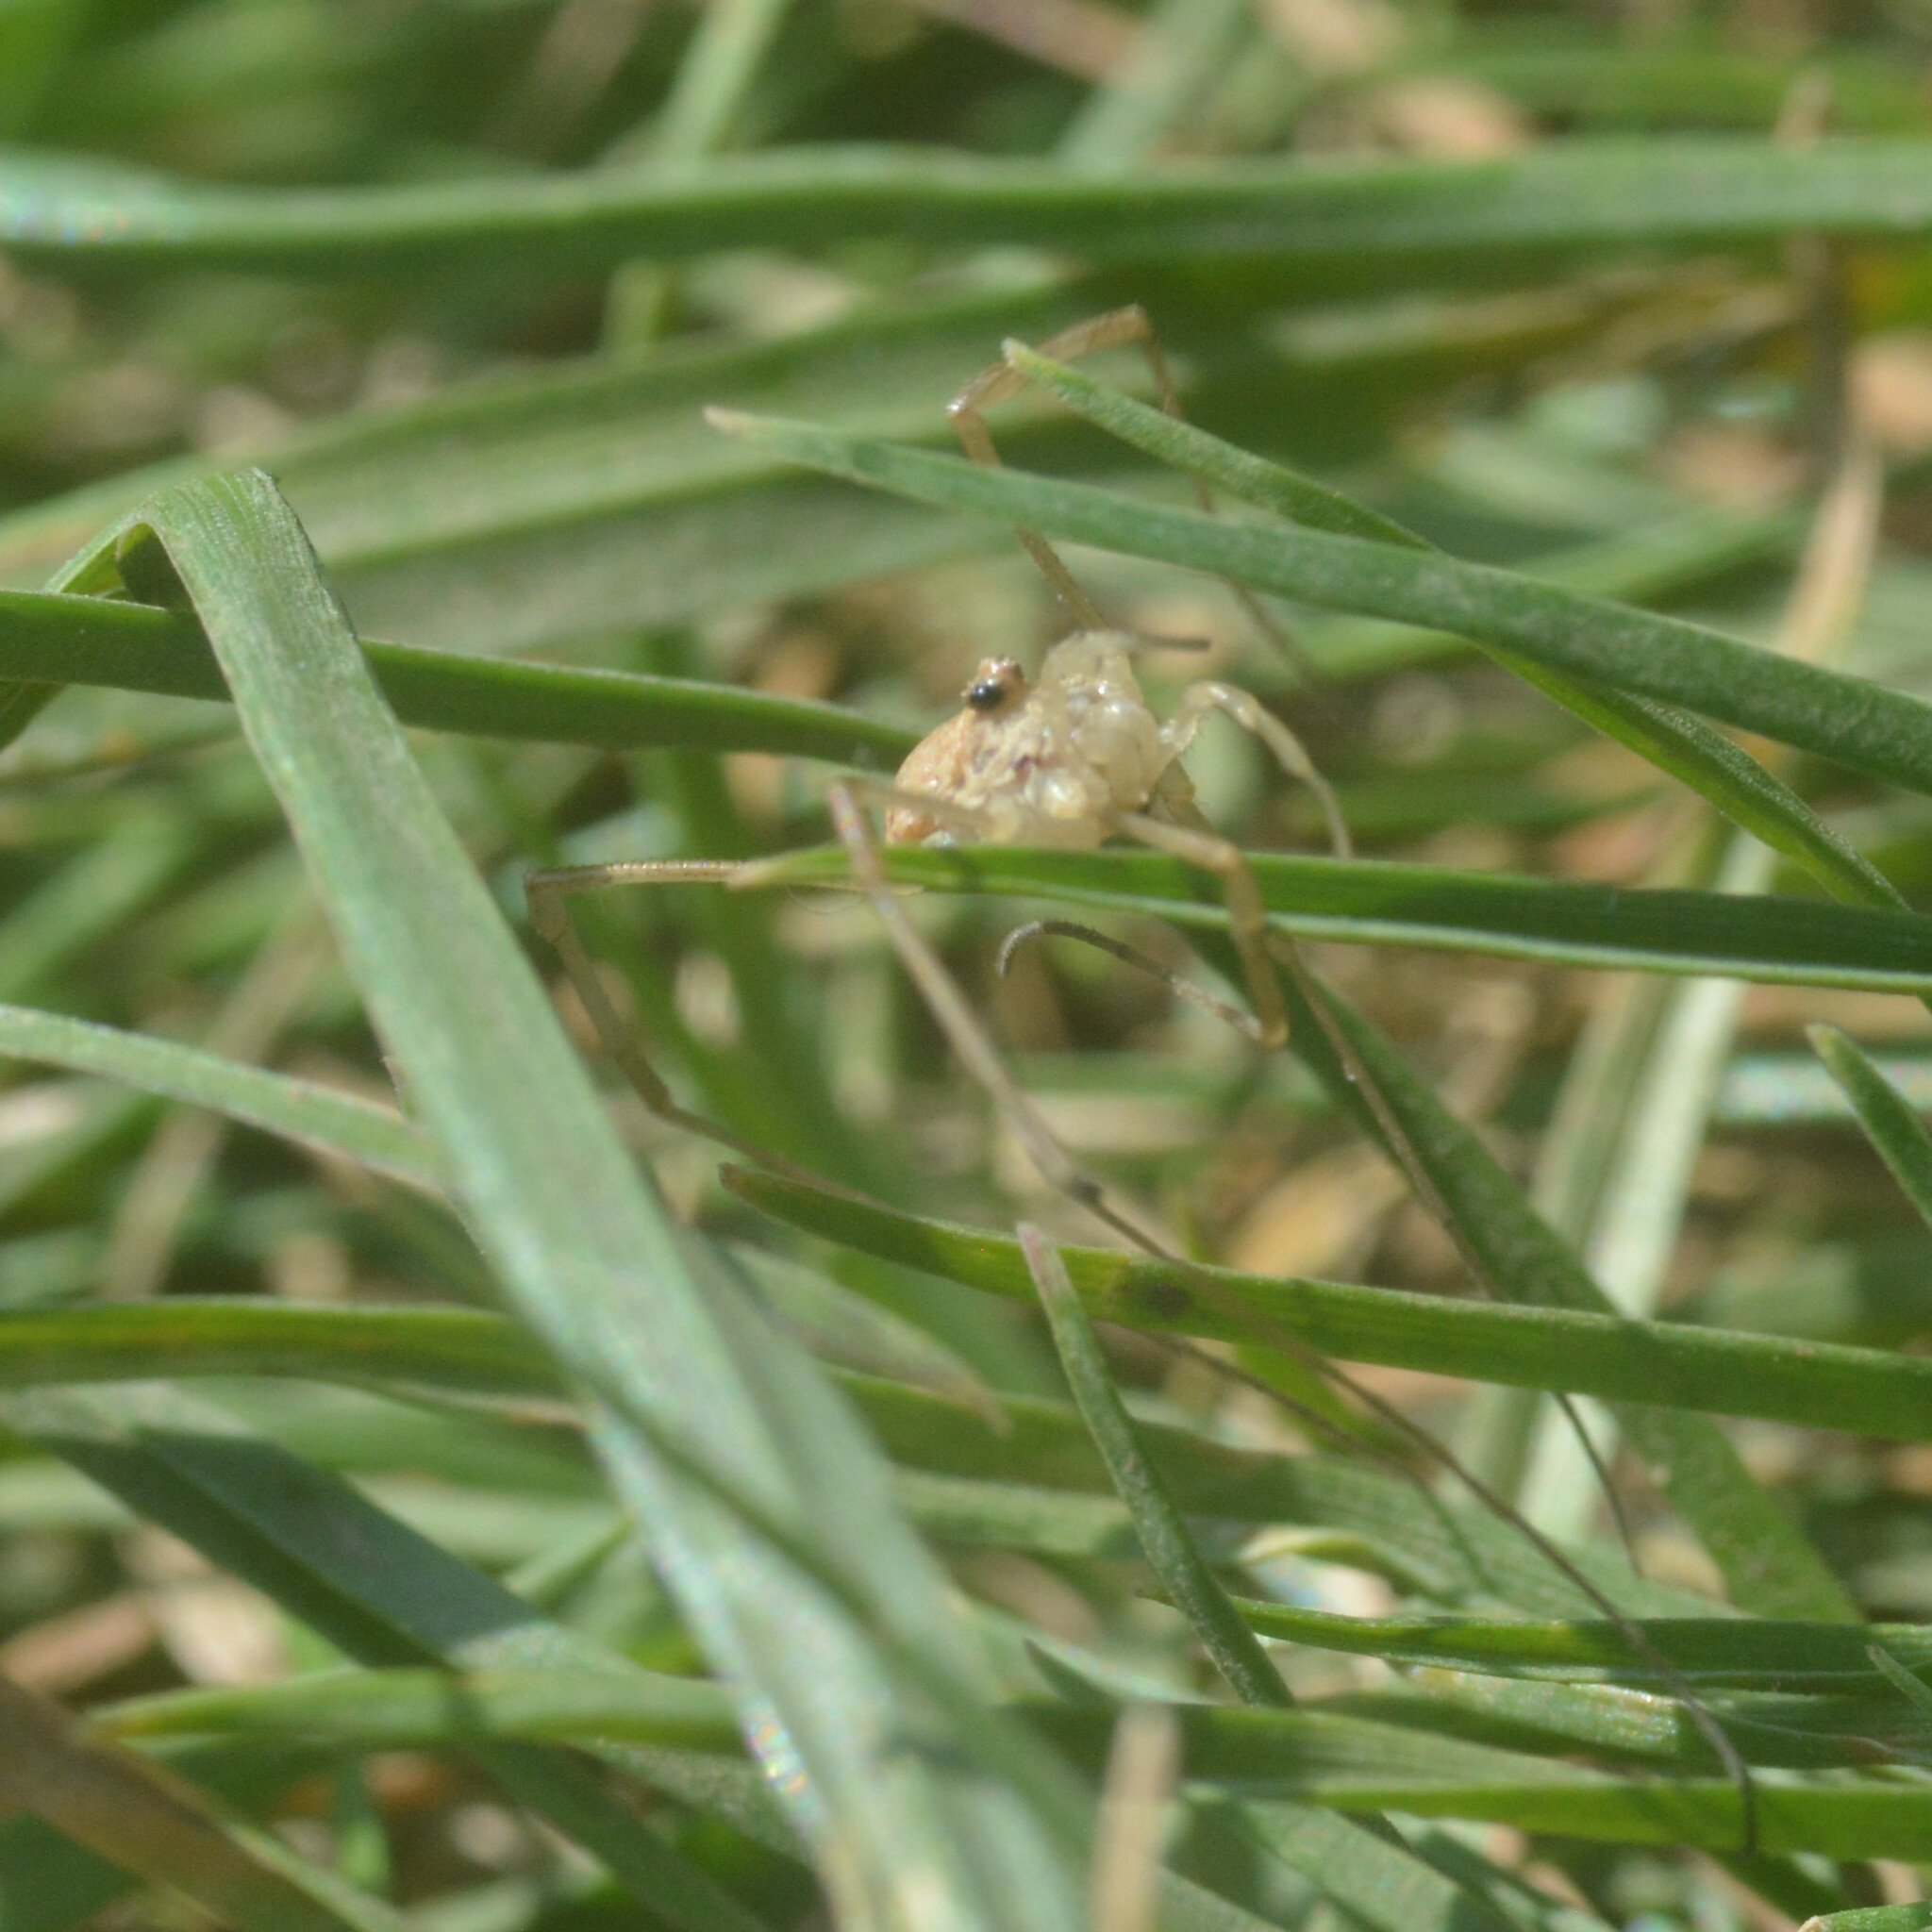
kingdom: Animalia
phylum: Arthropoda
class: Arachnida
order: Opiliones
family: Phalangiidae
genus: Rilaena
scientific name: Rilaena triangularis
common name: Spring harvestman
